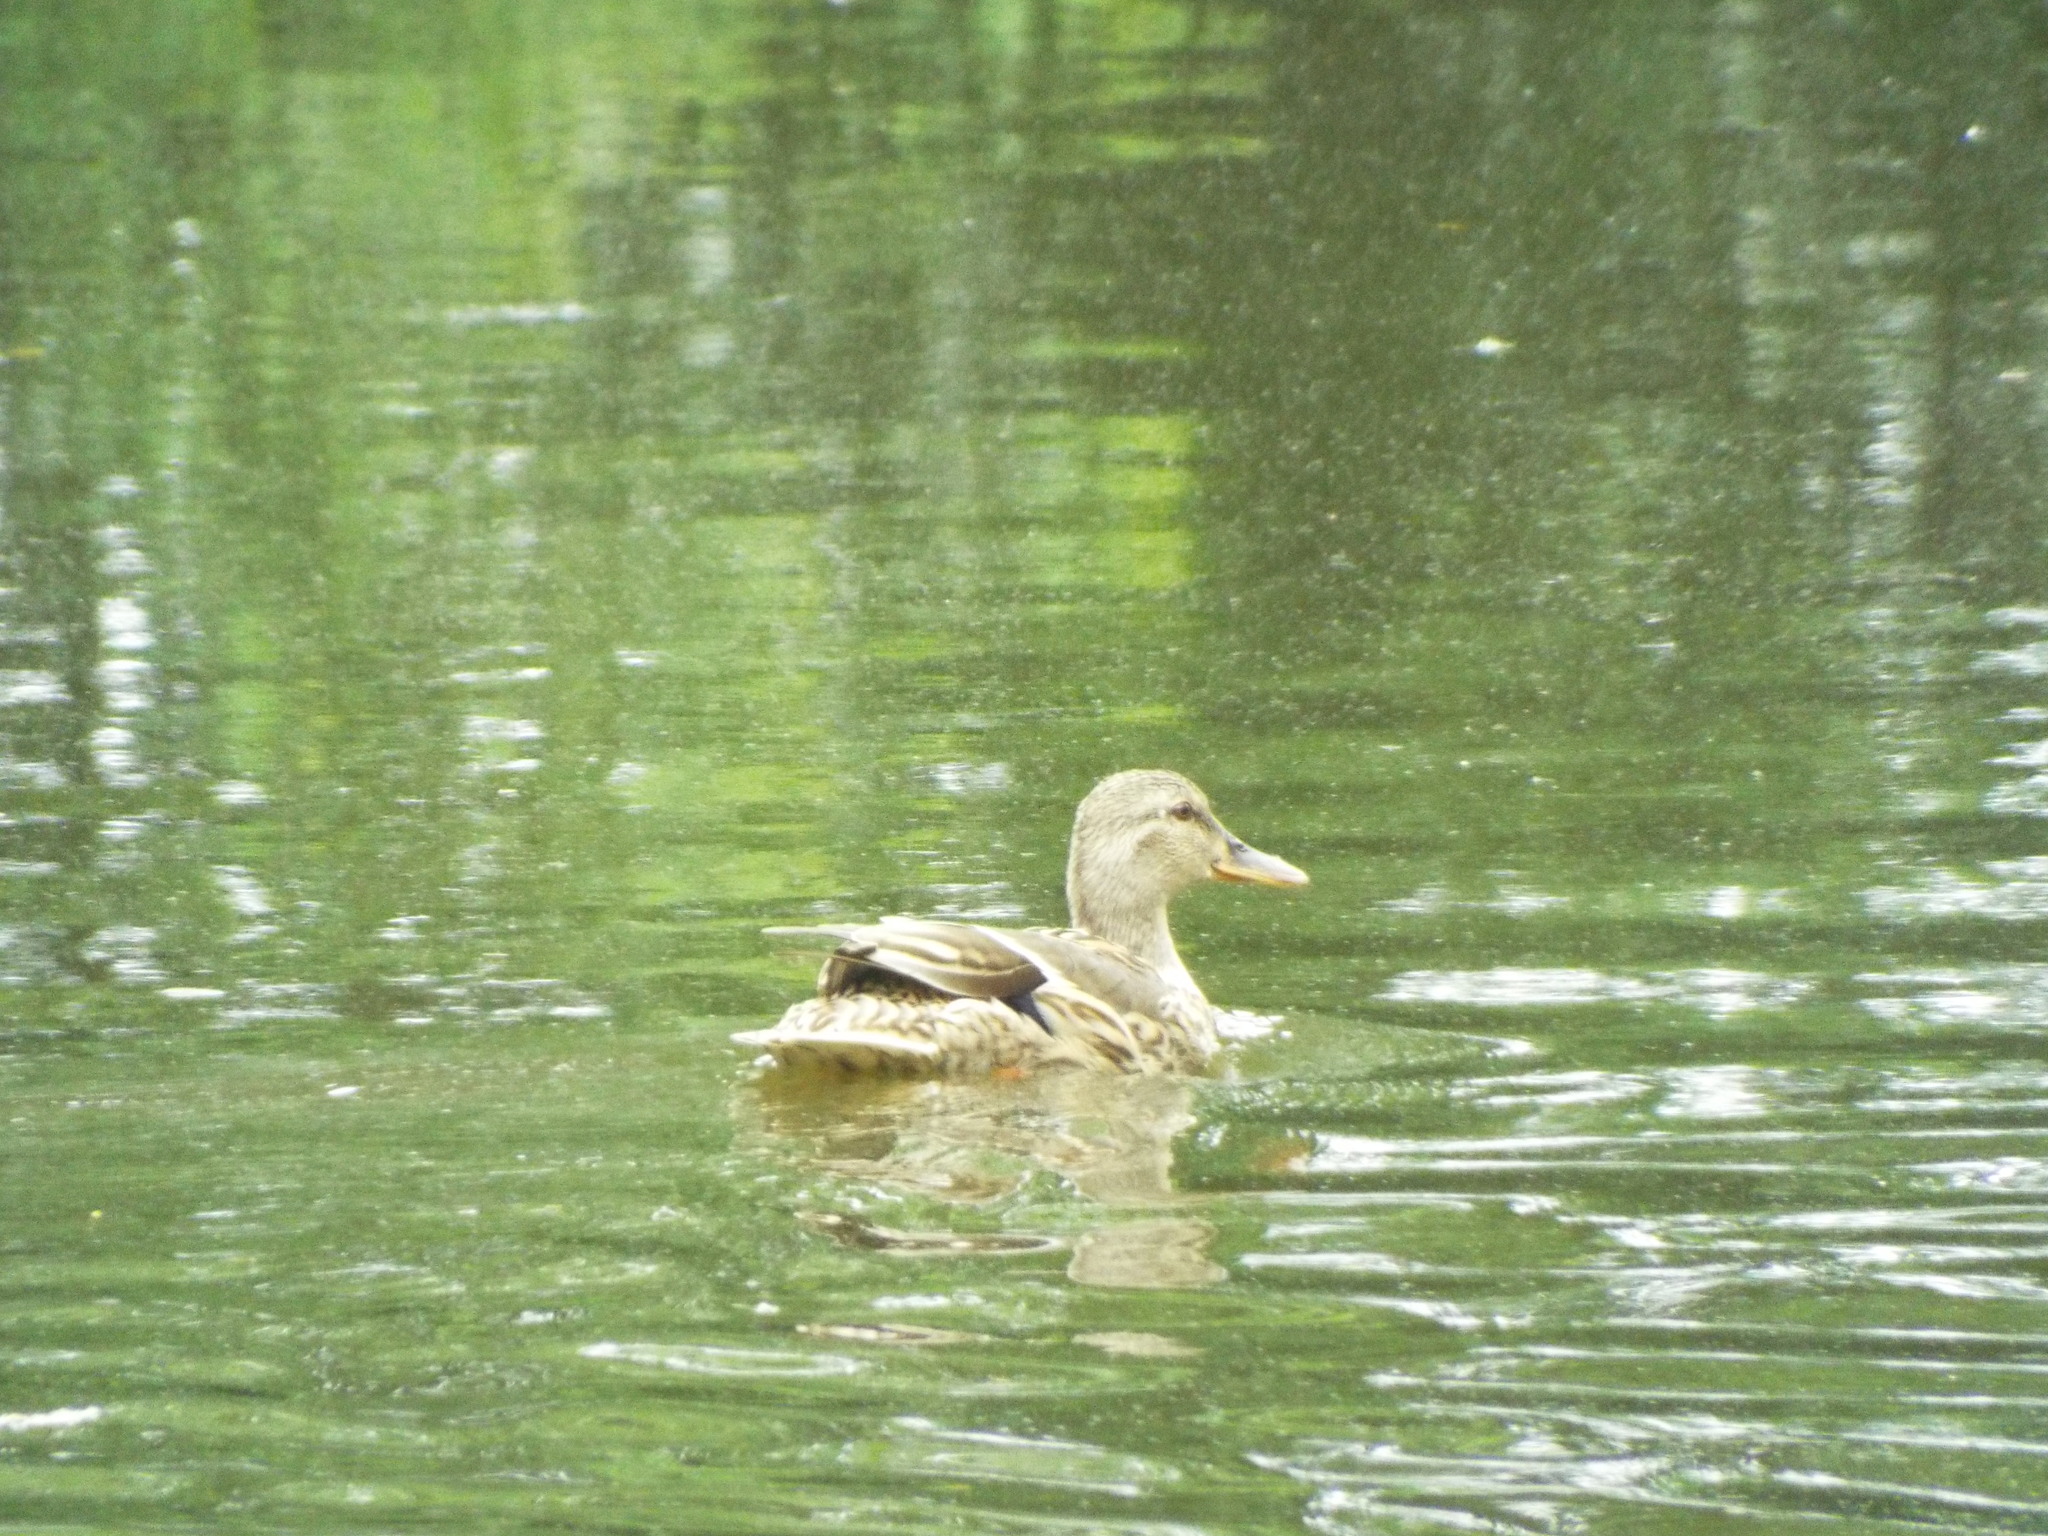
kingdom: Animalia
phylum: Chordata
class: Aves
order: Anseriformes
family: Anatidae
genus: Anas
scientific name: Anas platyrhynchos
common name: Mallard
